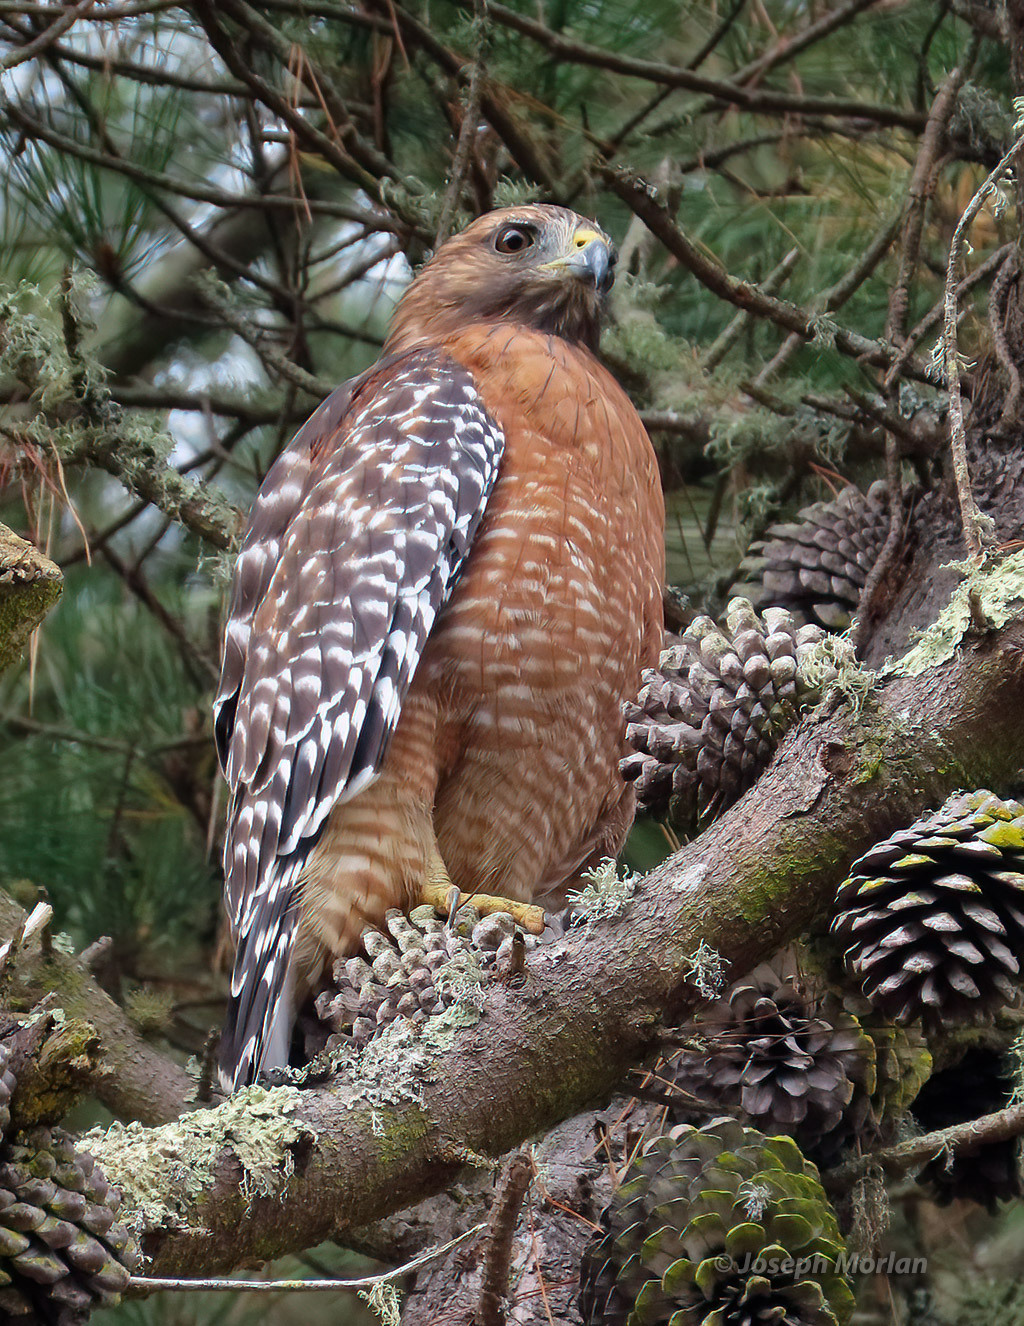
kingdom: Animalia
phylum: Chordata
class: Aves
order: Accipitriformes
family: Accipitridae
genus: Buteo
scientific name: Buteo lineatus
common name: Red-shouldered hawk
